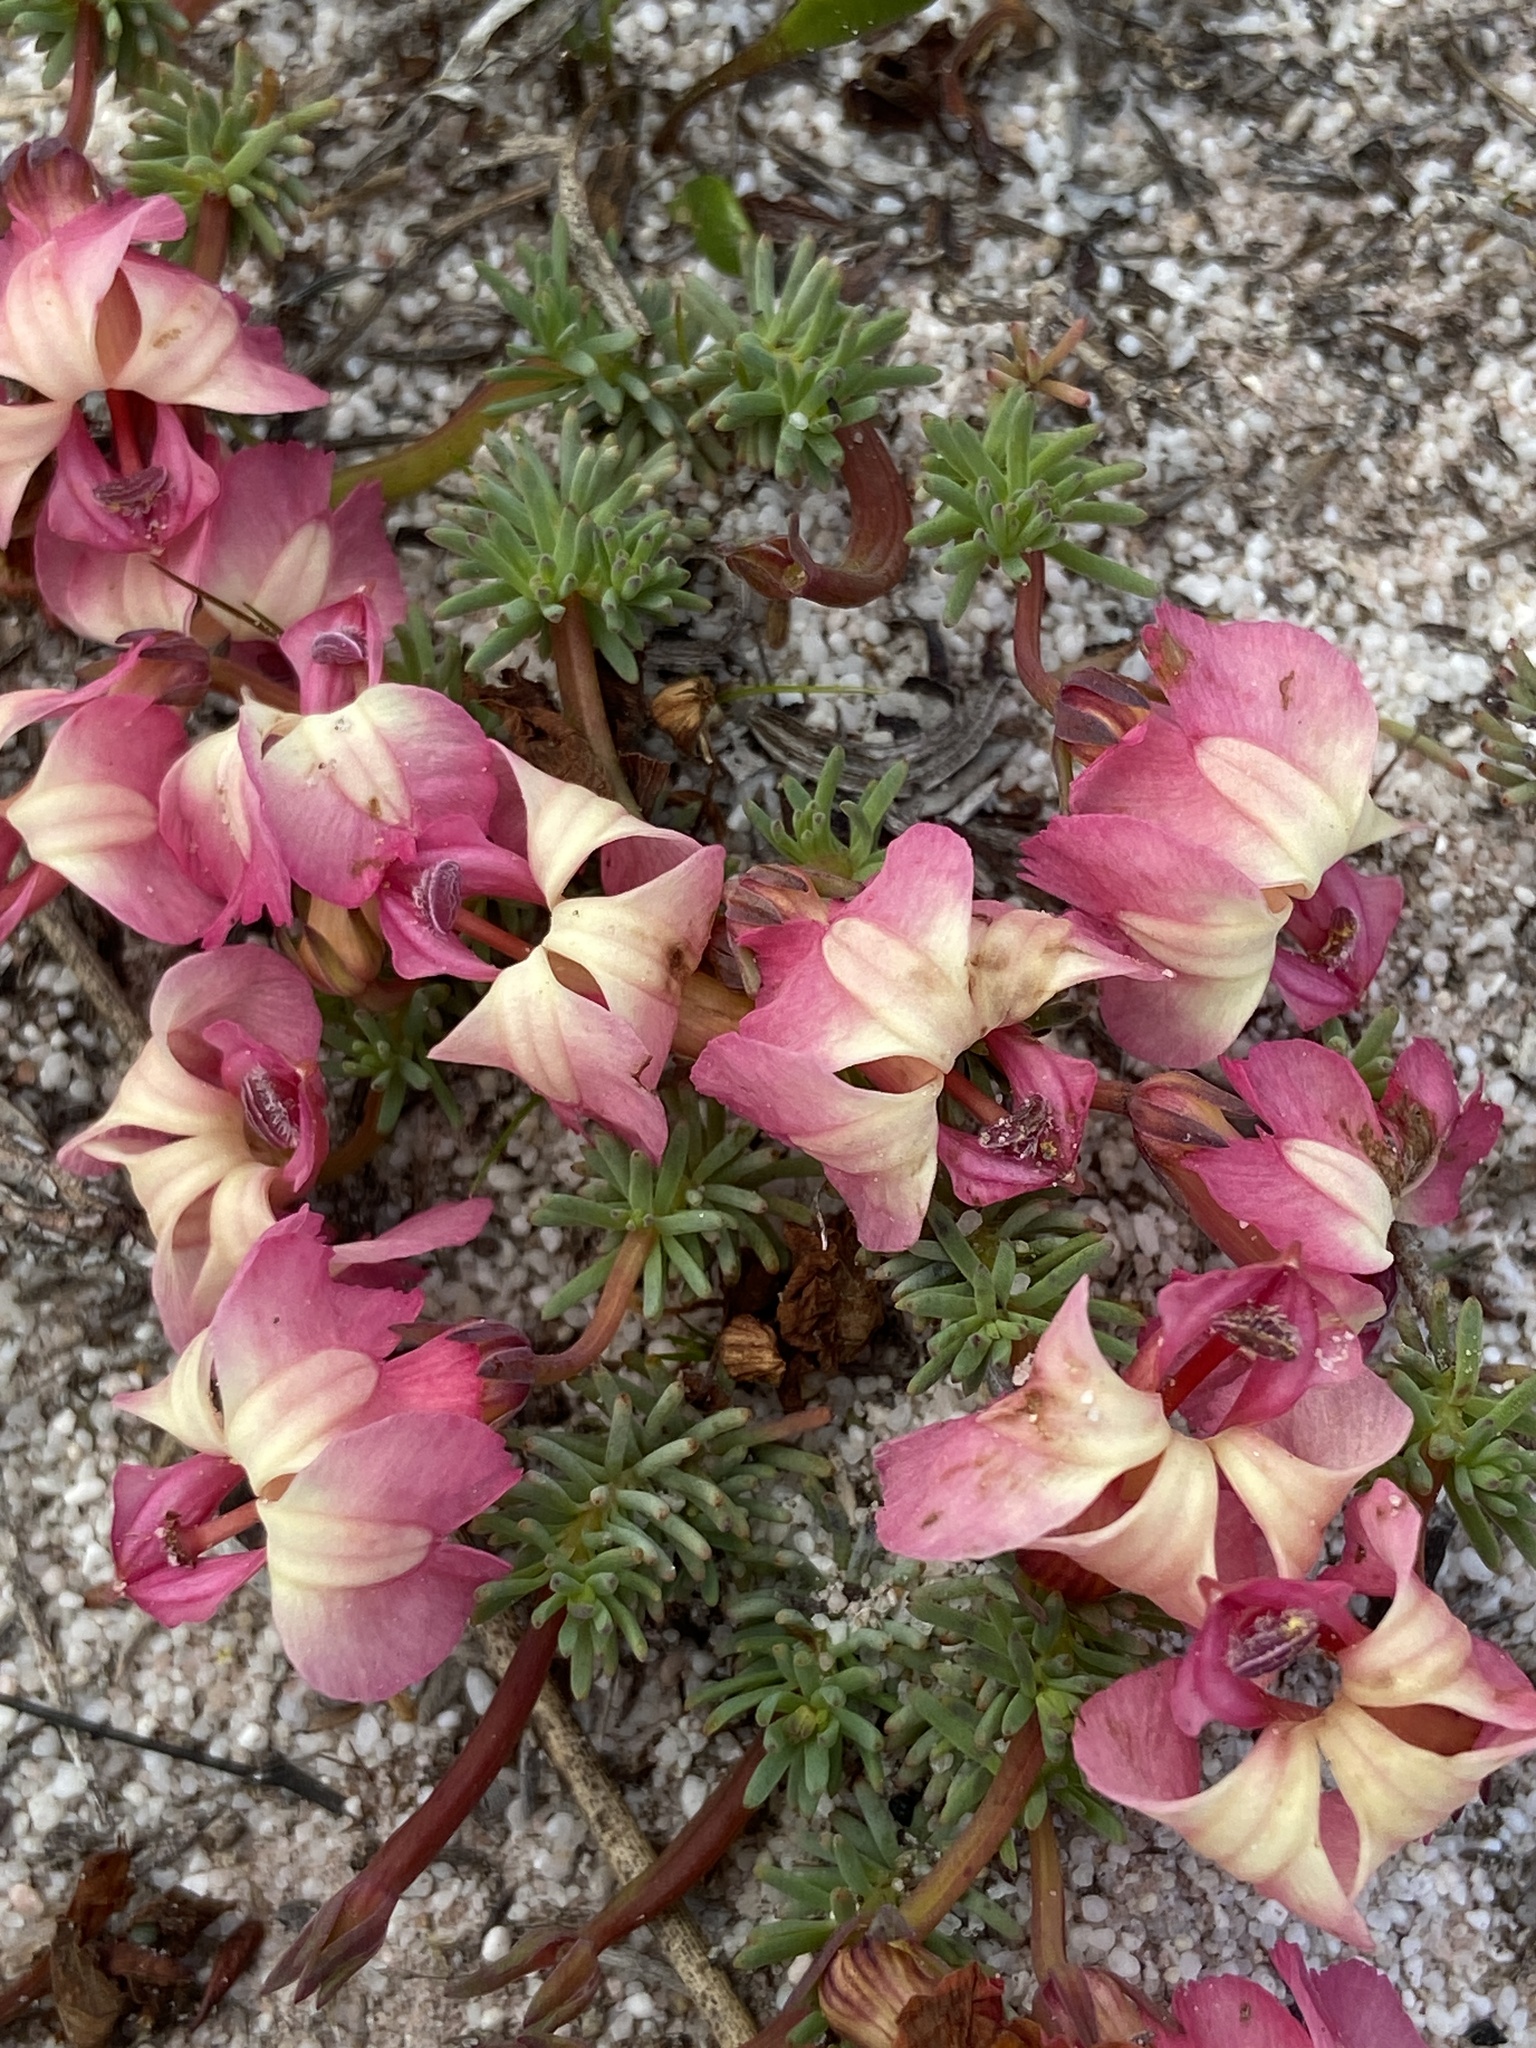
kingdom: Plantae
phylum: Tracheophyta
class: Magnoliopsida
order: Asterales
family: Goodeniaceae
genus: Lechenaultia
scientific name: Lechenaultia formosa
